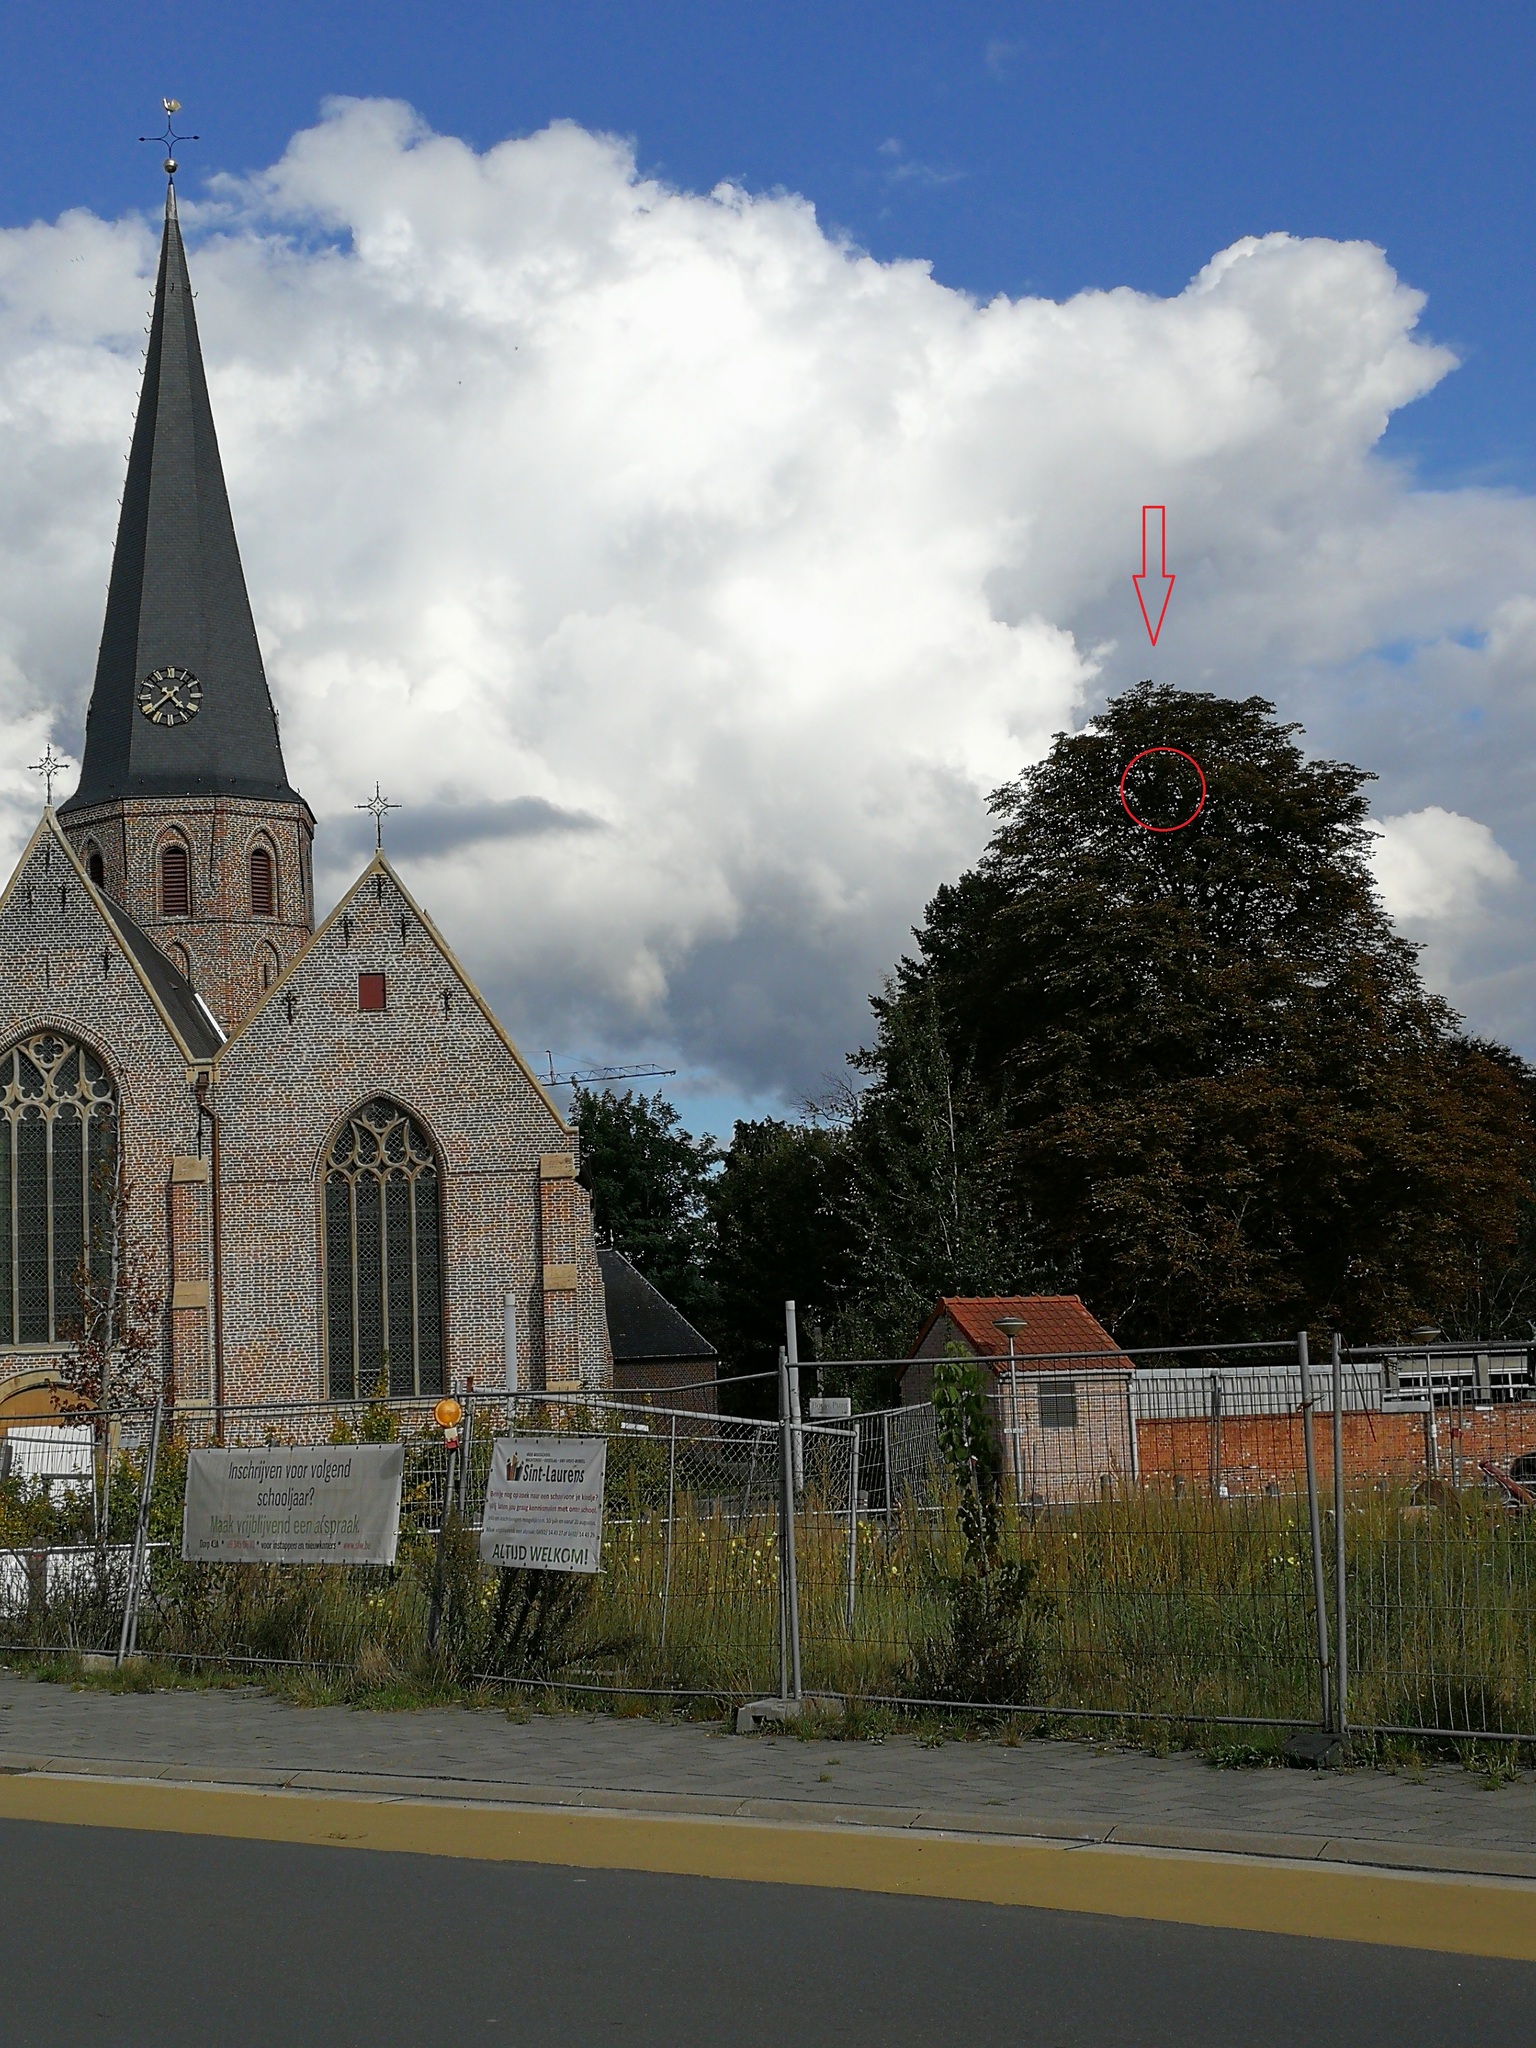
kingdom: Animalia
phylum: Arthropoda
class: Insecta
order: Hymenoptera
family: Vespidae
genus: Vespa
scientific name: Vespa velutina
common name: Asian hornet
